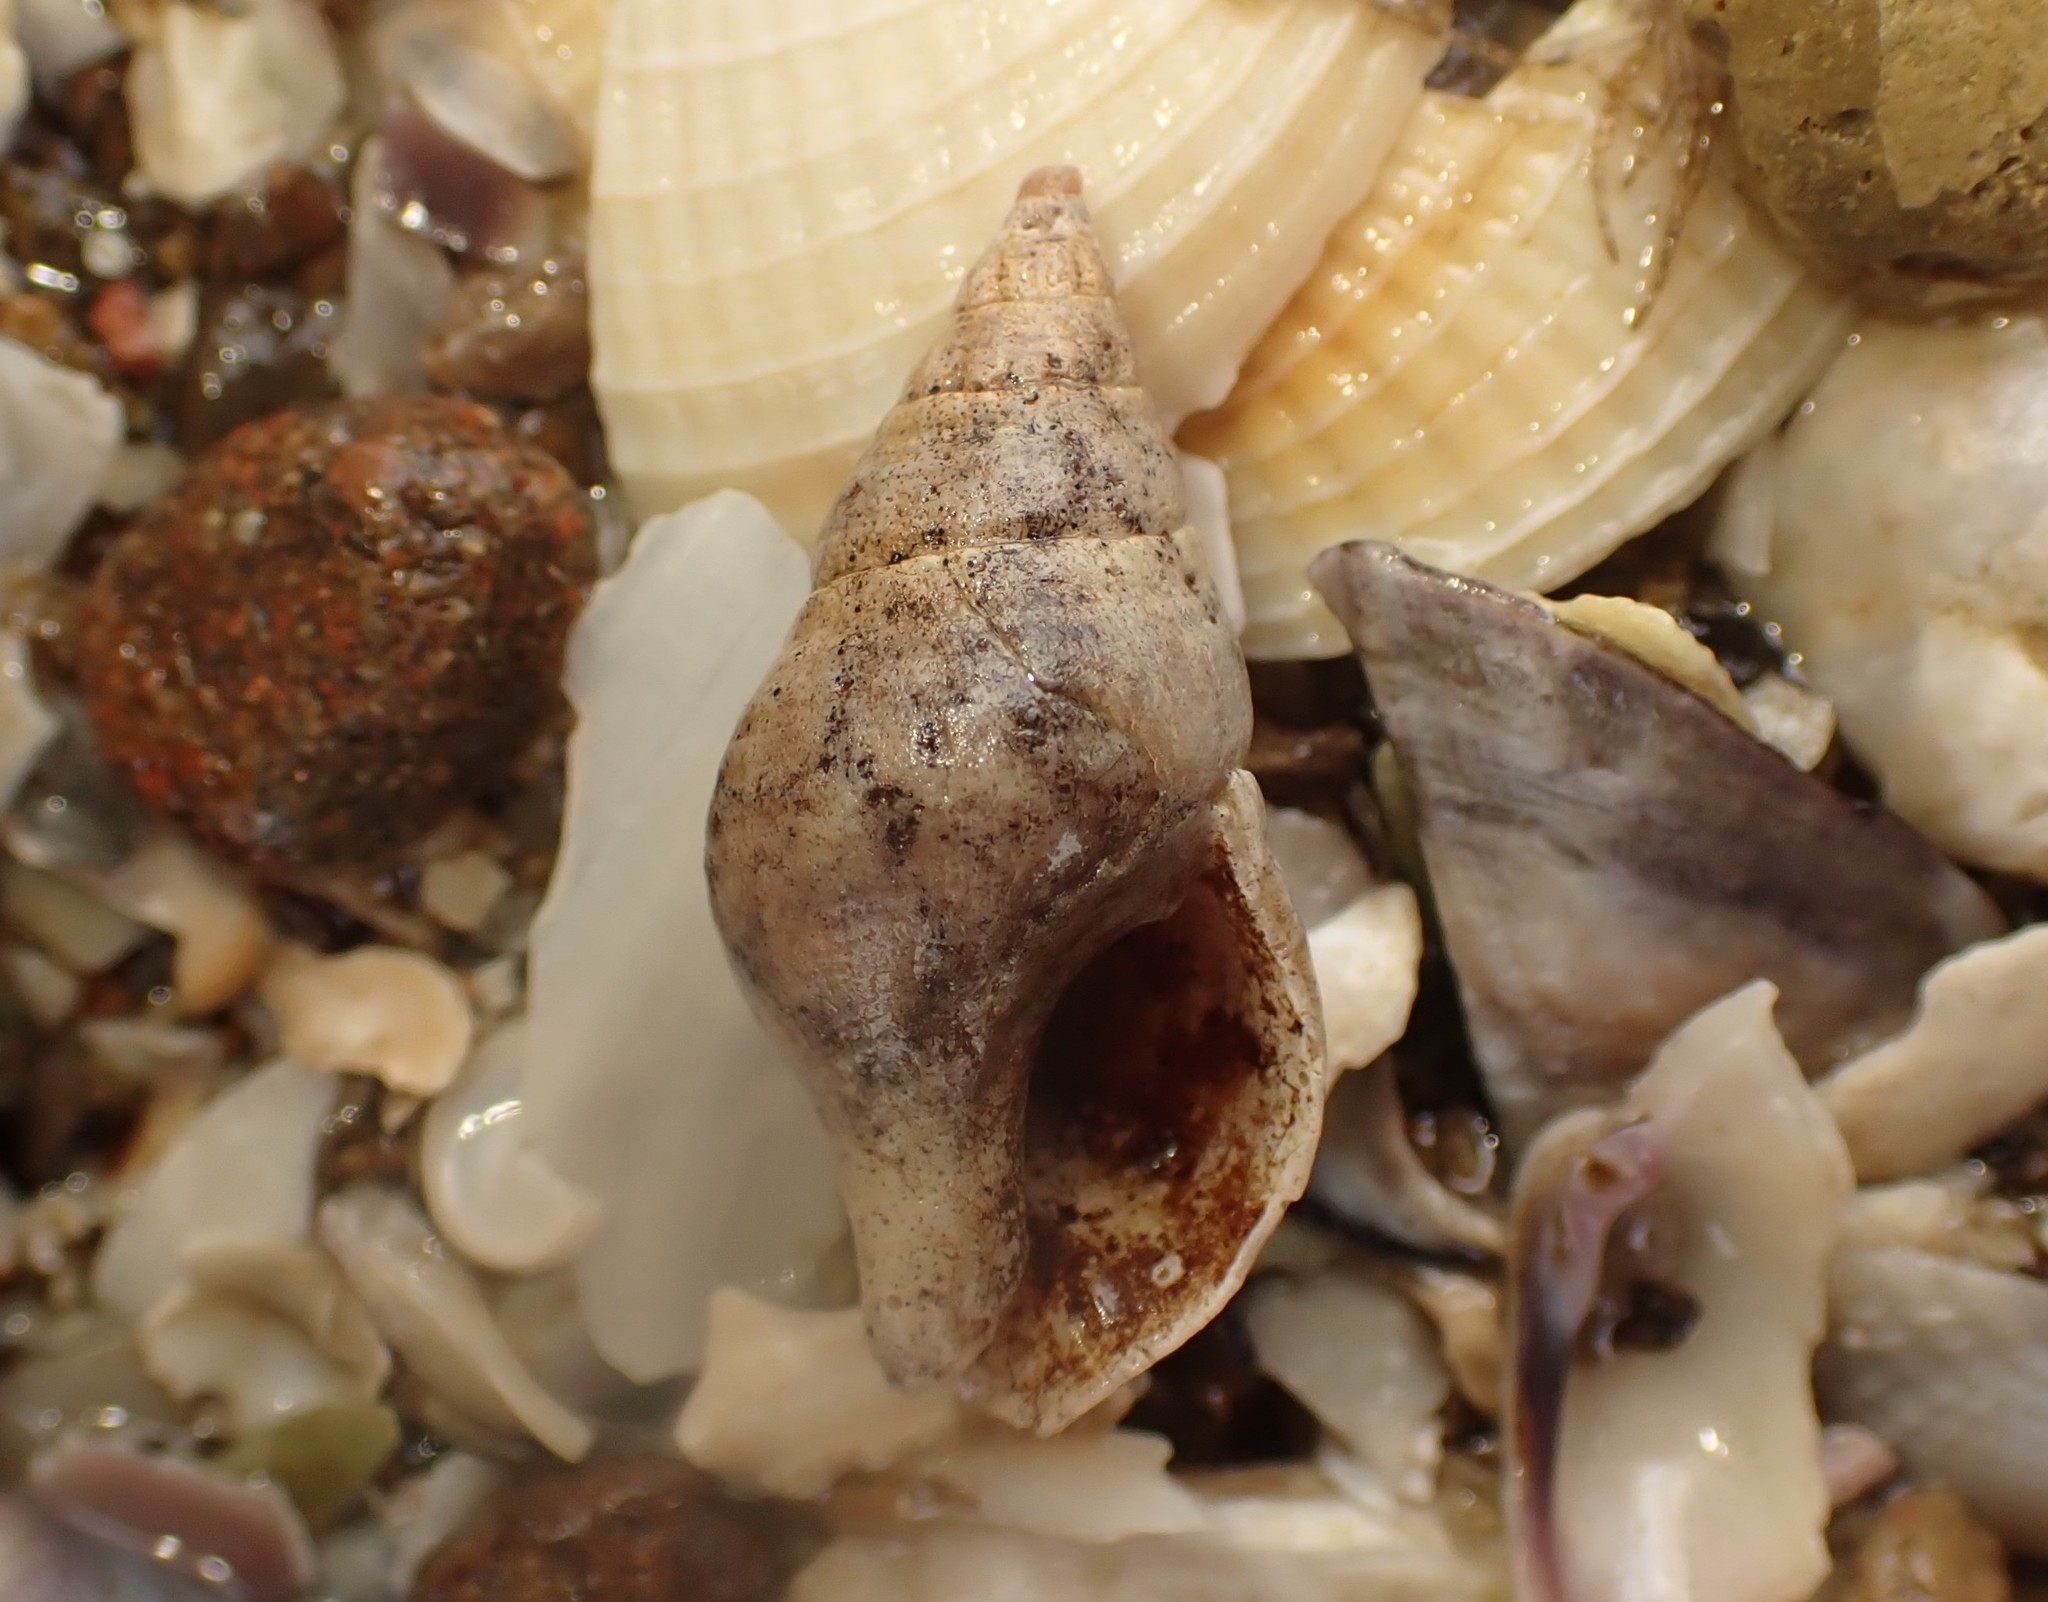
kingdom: Animalia
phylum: Mollusca
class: Gastropoda
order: Neogastropoda
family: Tudiclidae
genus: Buccinulum
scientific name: Buccinulum vittatum
